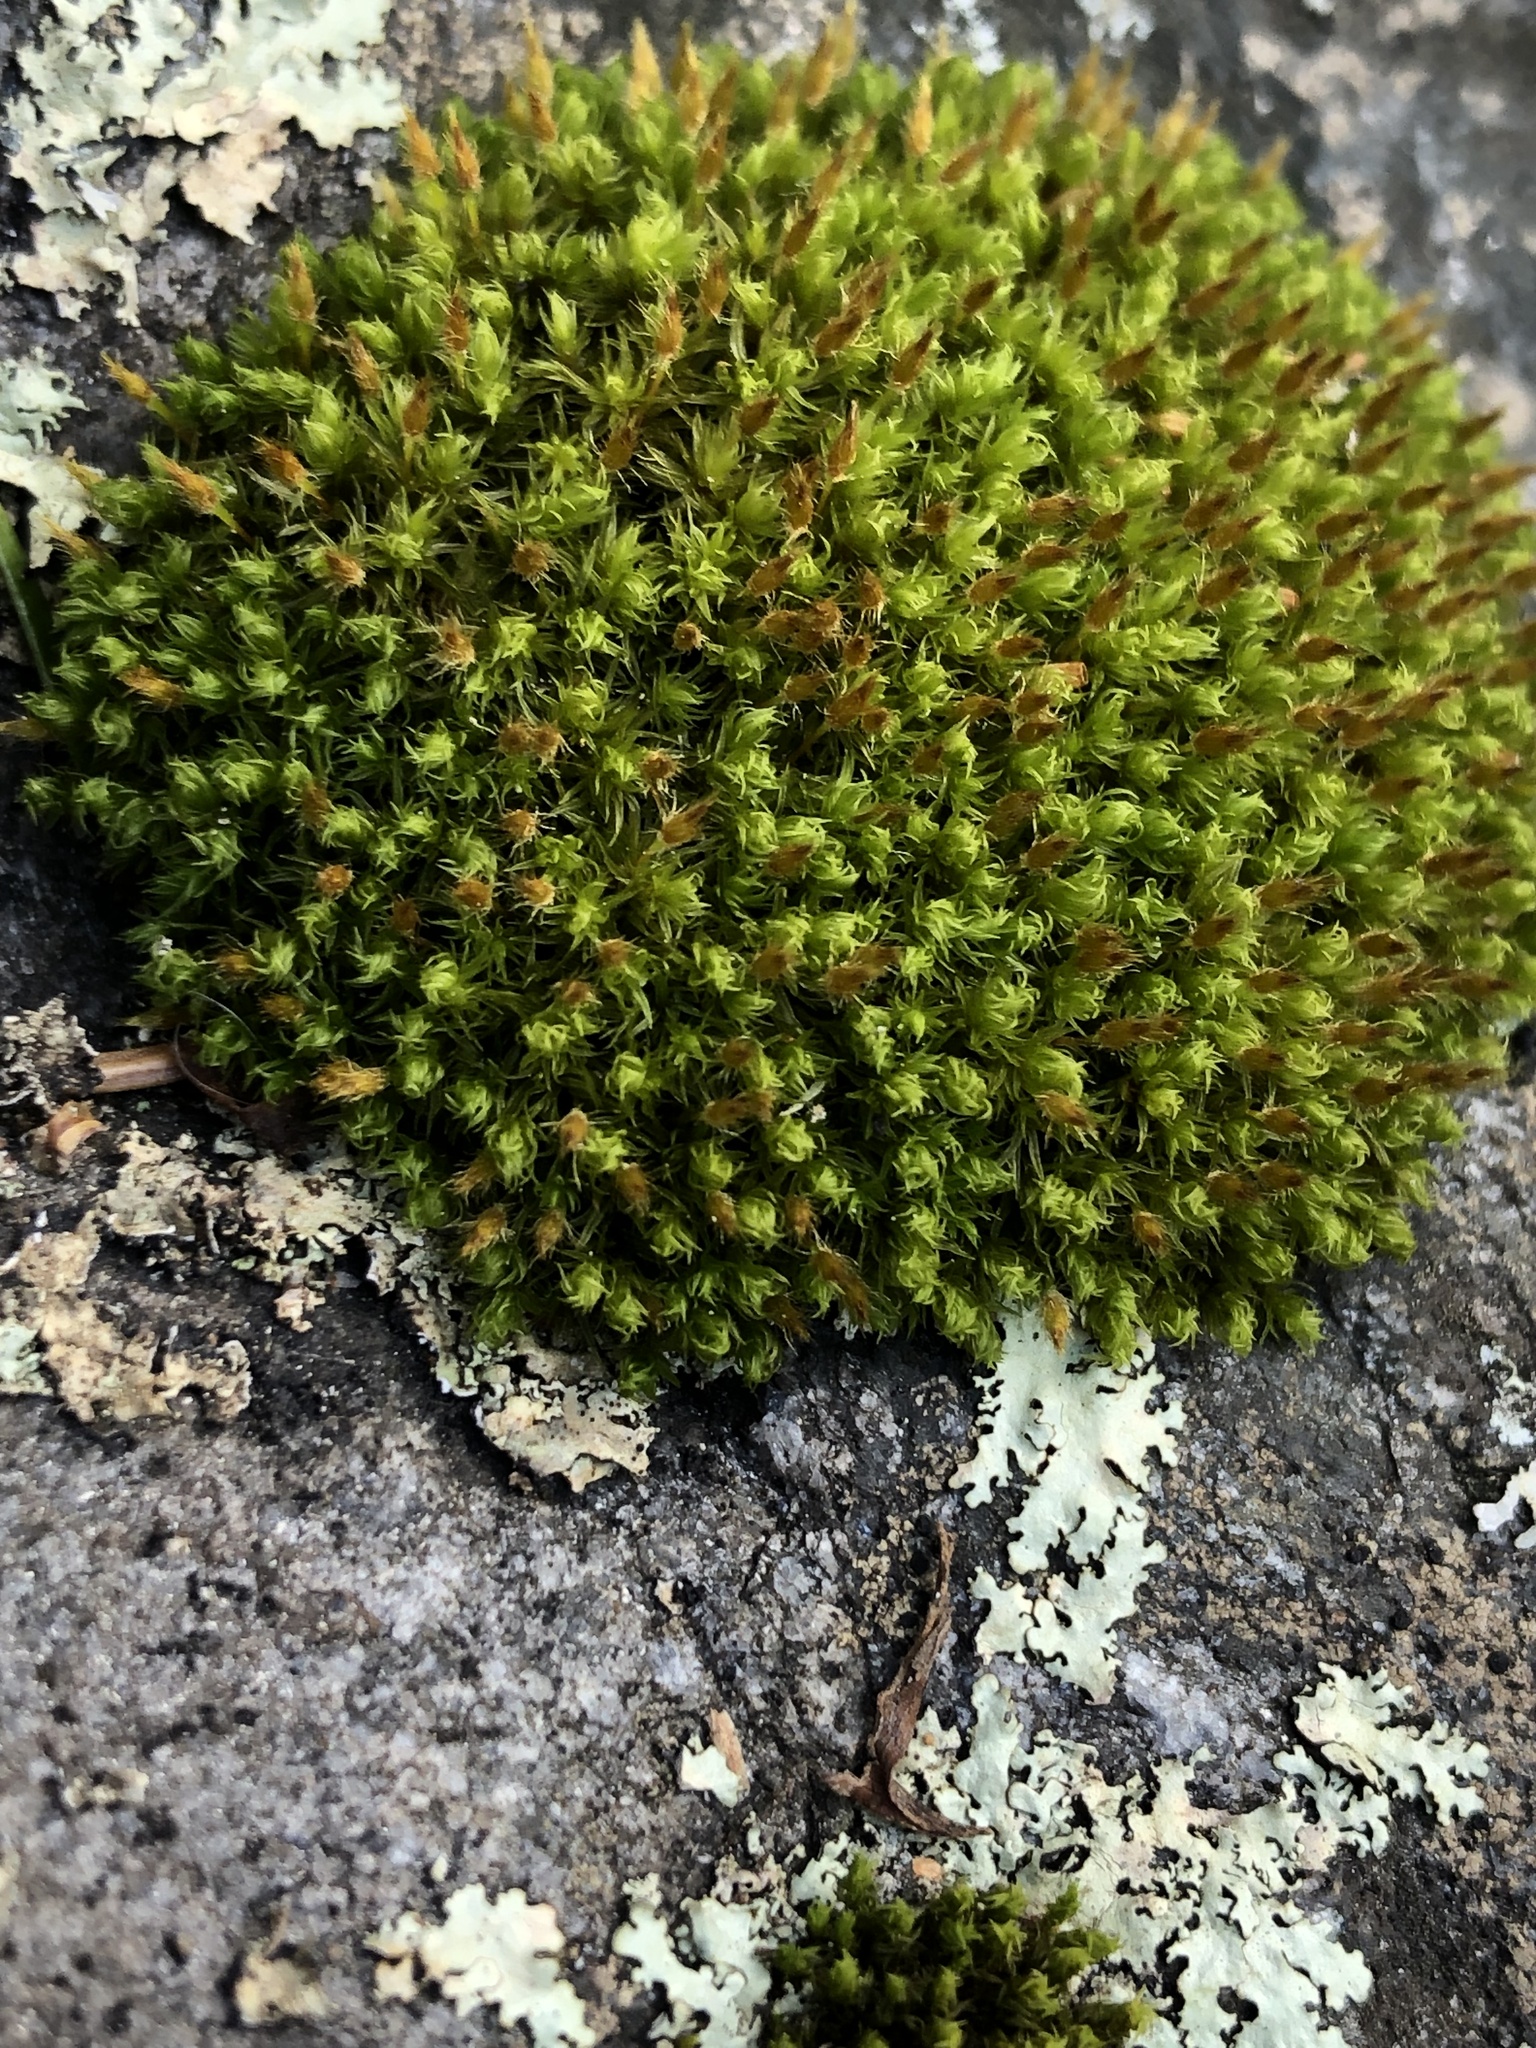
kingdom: Plantae
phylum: Bryophyta
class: Bryopsida
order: Orthotrichales
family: Orthotrichaceae
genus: Ulota
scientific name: Ulota crispa
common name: Crisped pincushion moss
